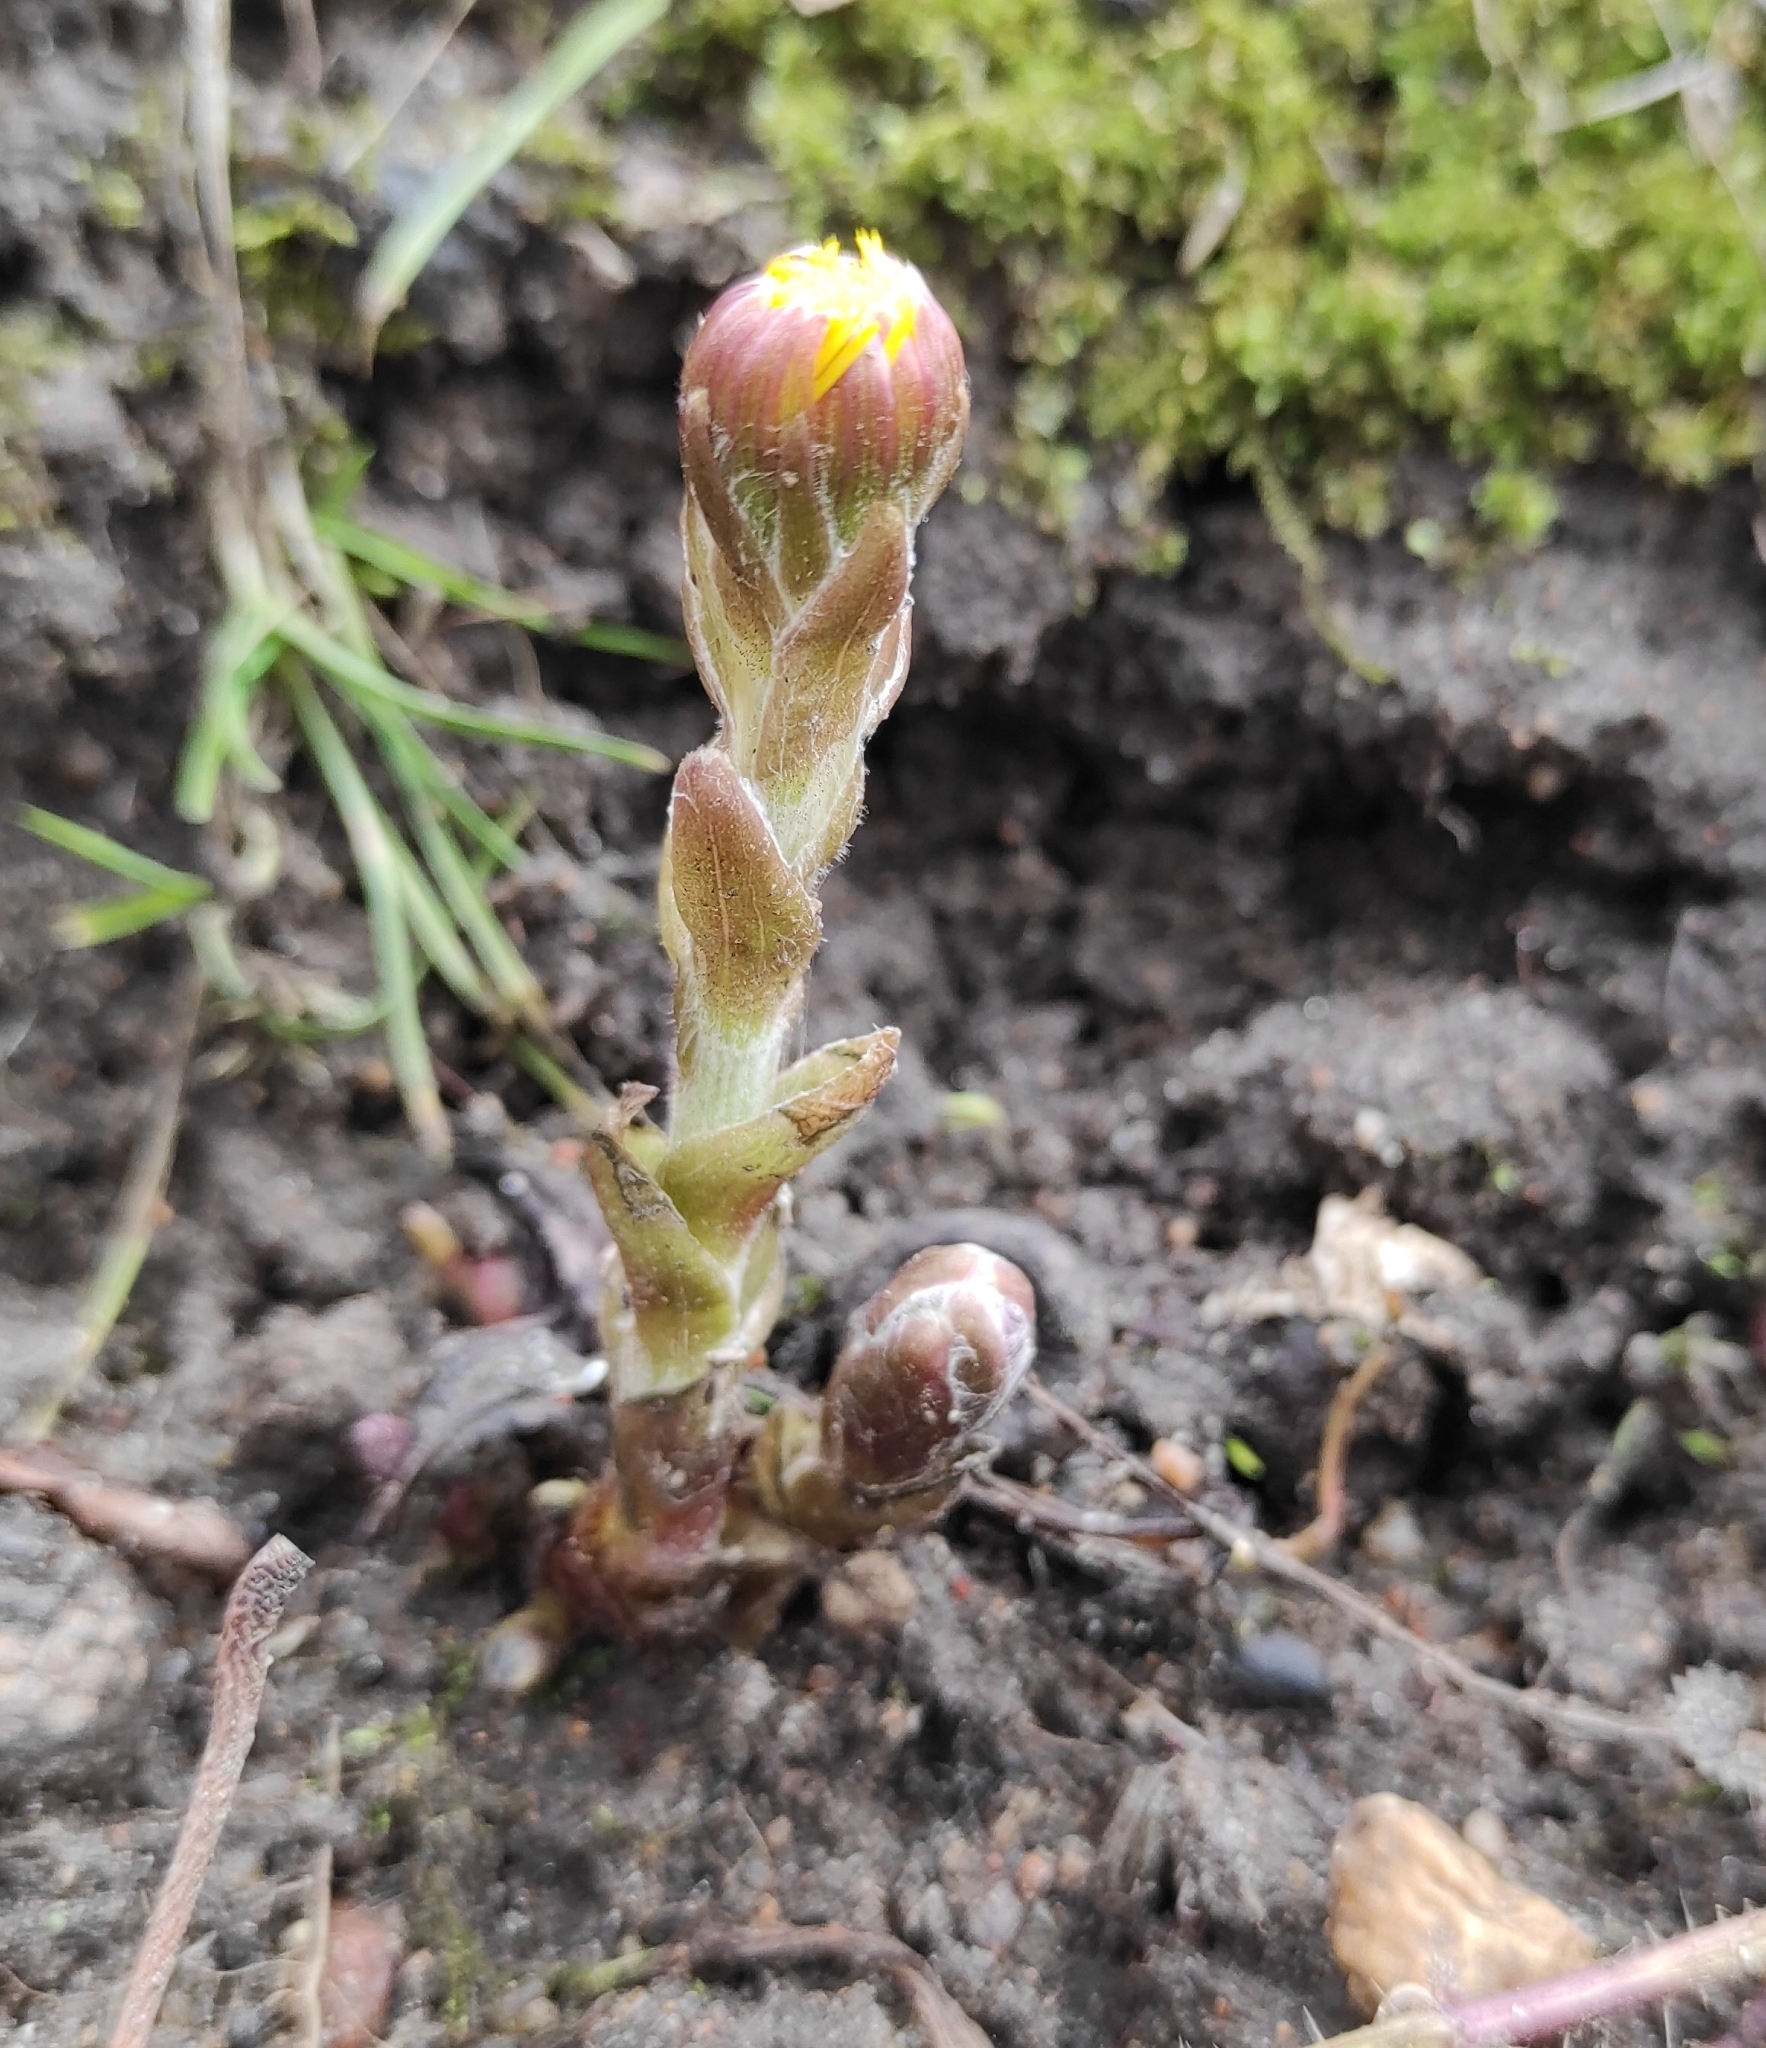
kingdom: Plantae
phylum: Tracheophyta
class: Magnoliopsida
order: Asterales
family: Asteraceae
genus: Tussilago
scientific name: Tussilago farfara
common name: Coltsfoot
